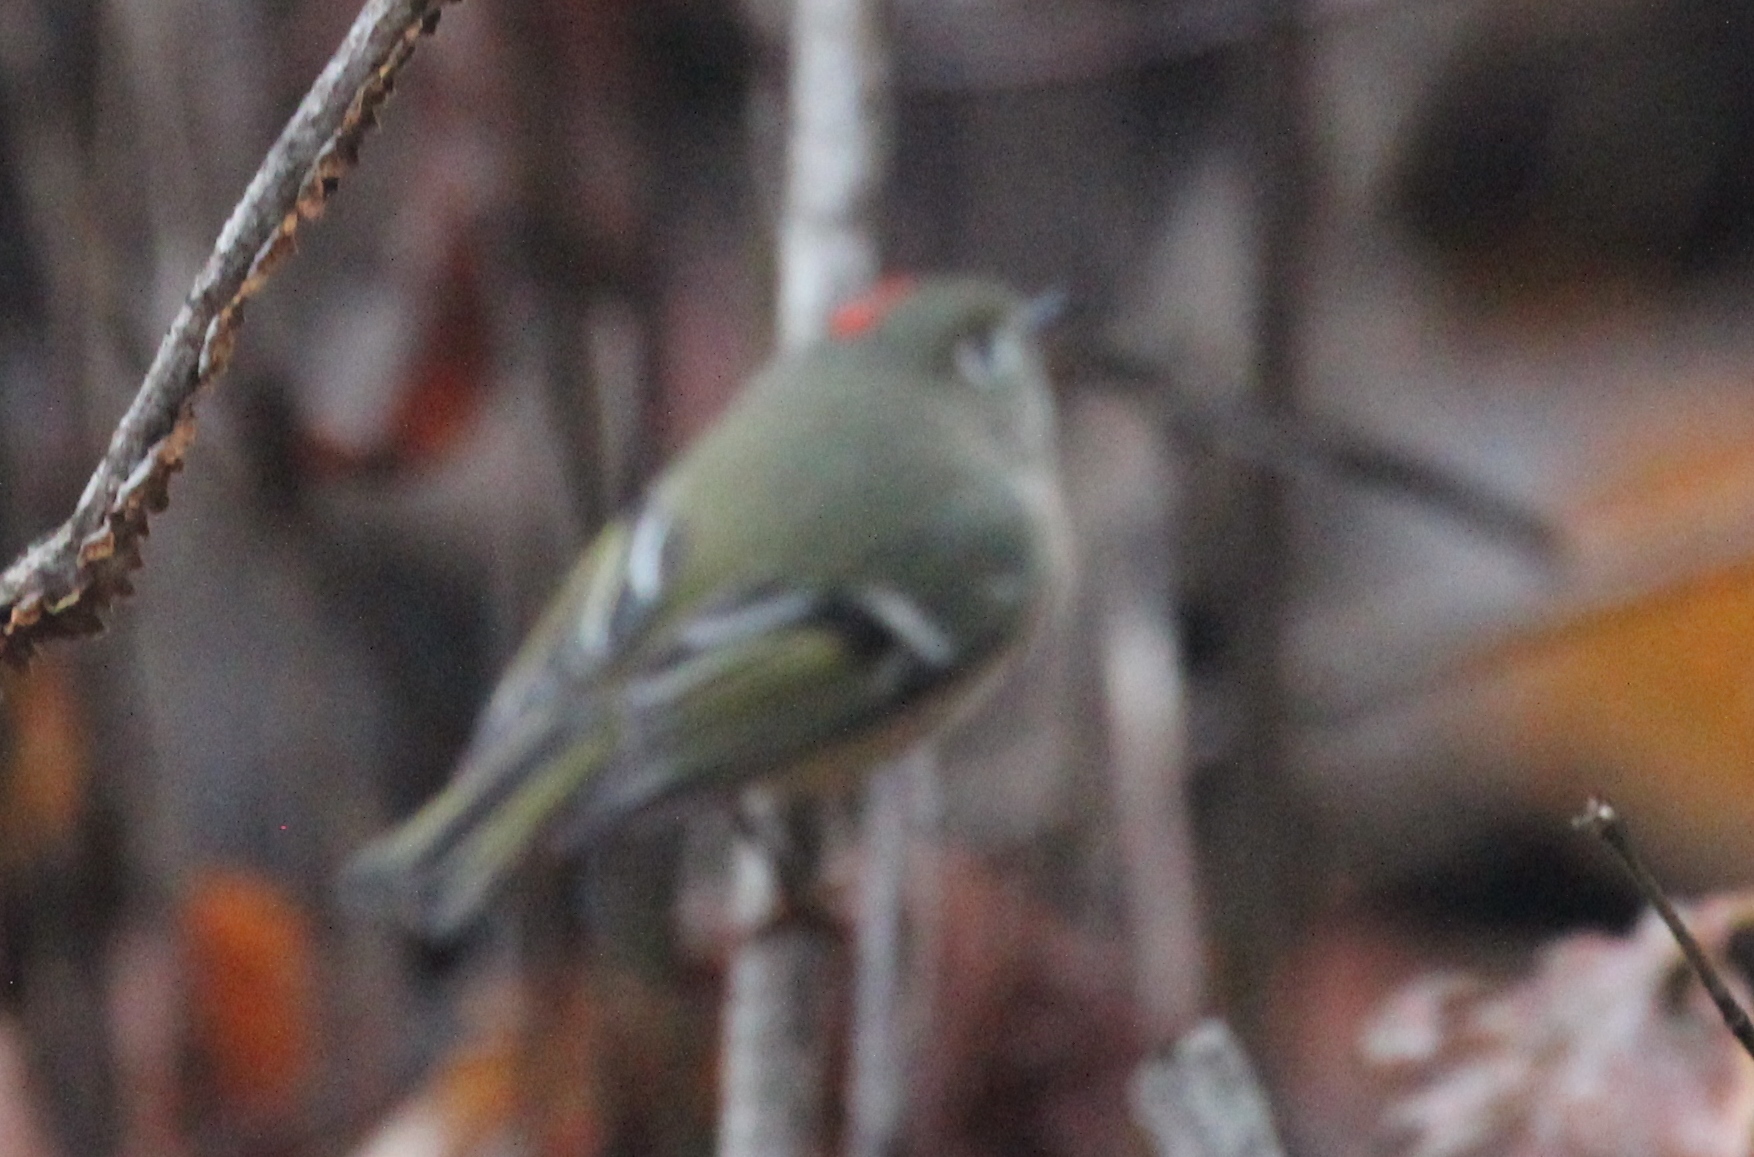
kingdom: Animalia
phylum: Chordata
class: Aves
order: Passeriformes
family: Regulidae
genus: Regulus
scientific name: Regulus calendula
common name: Ruby-crowned kinglet
